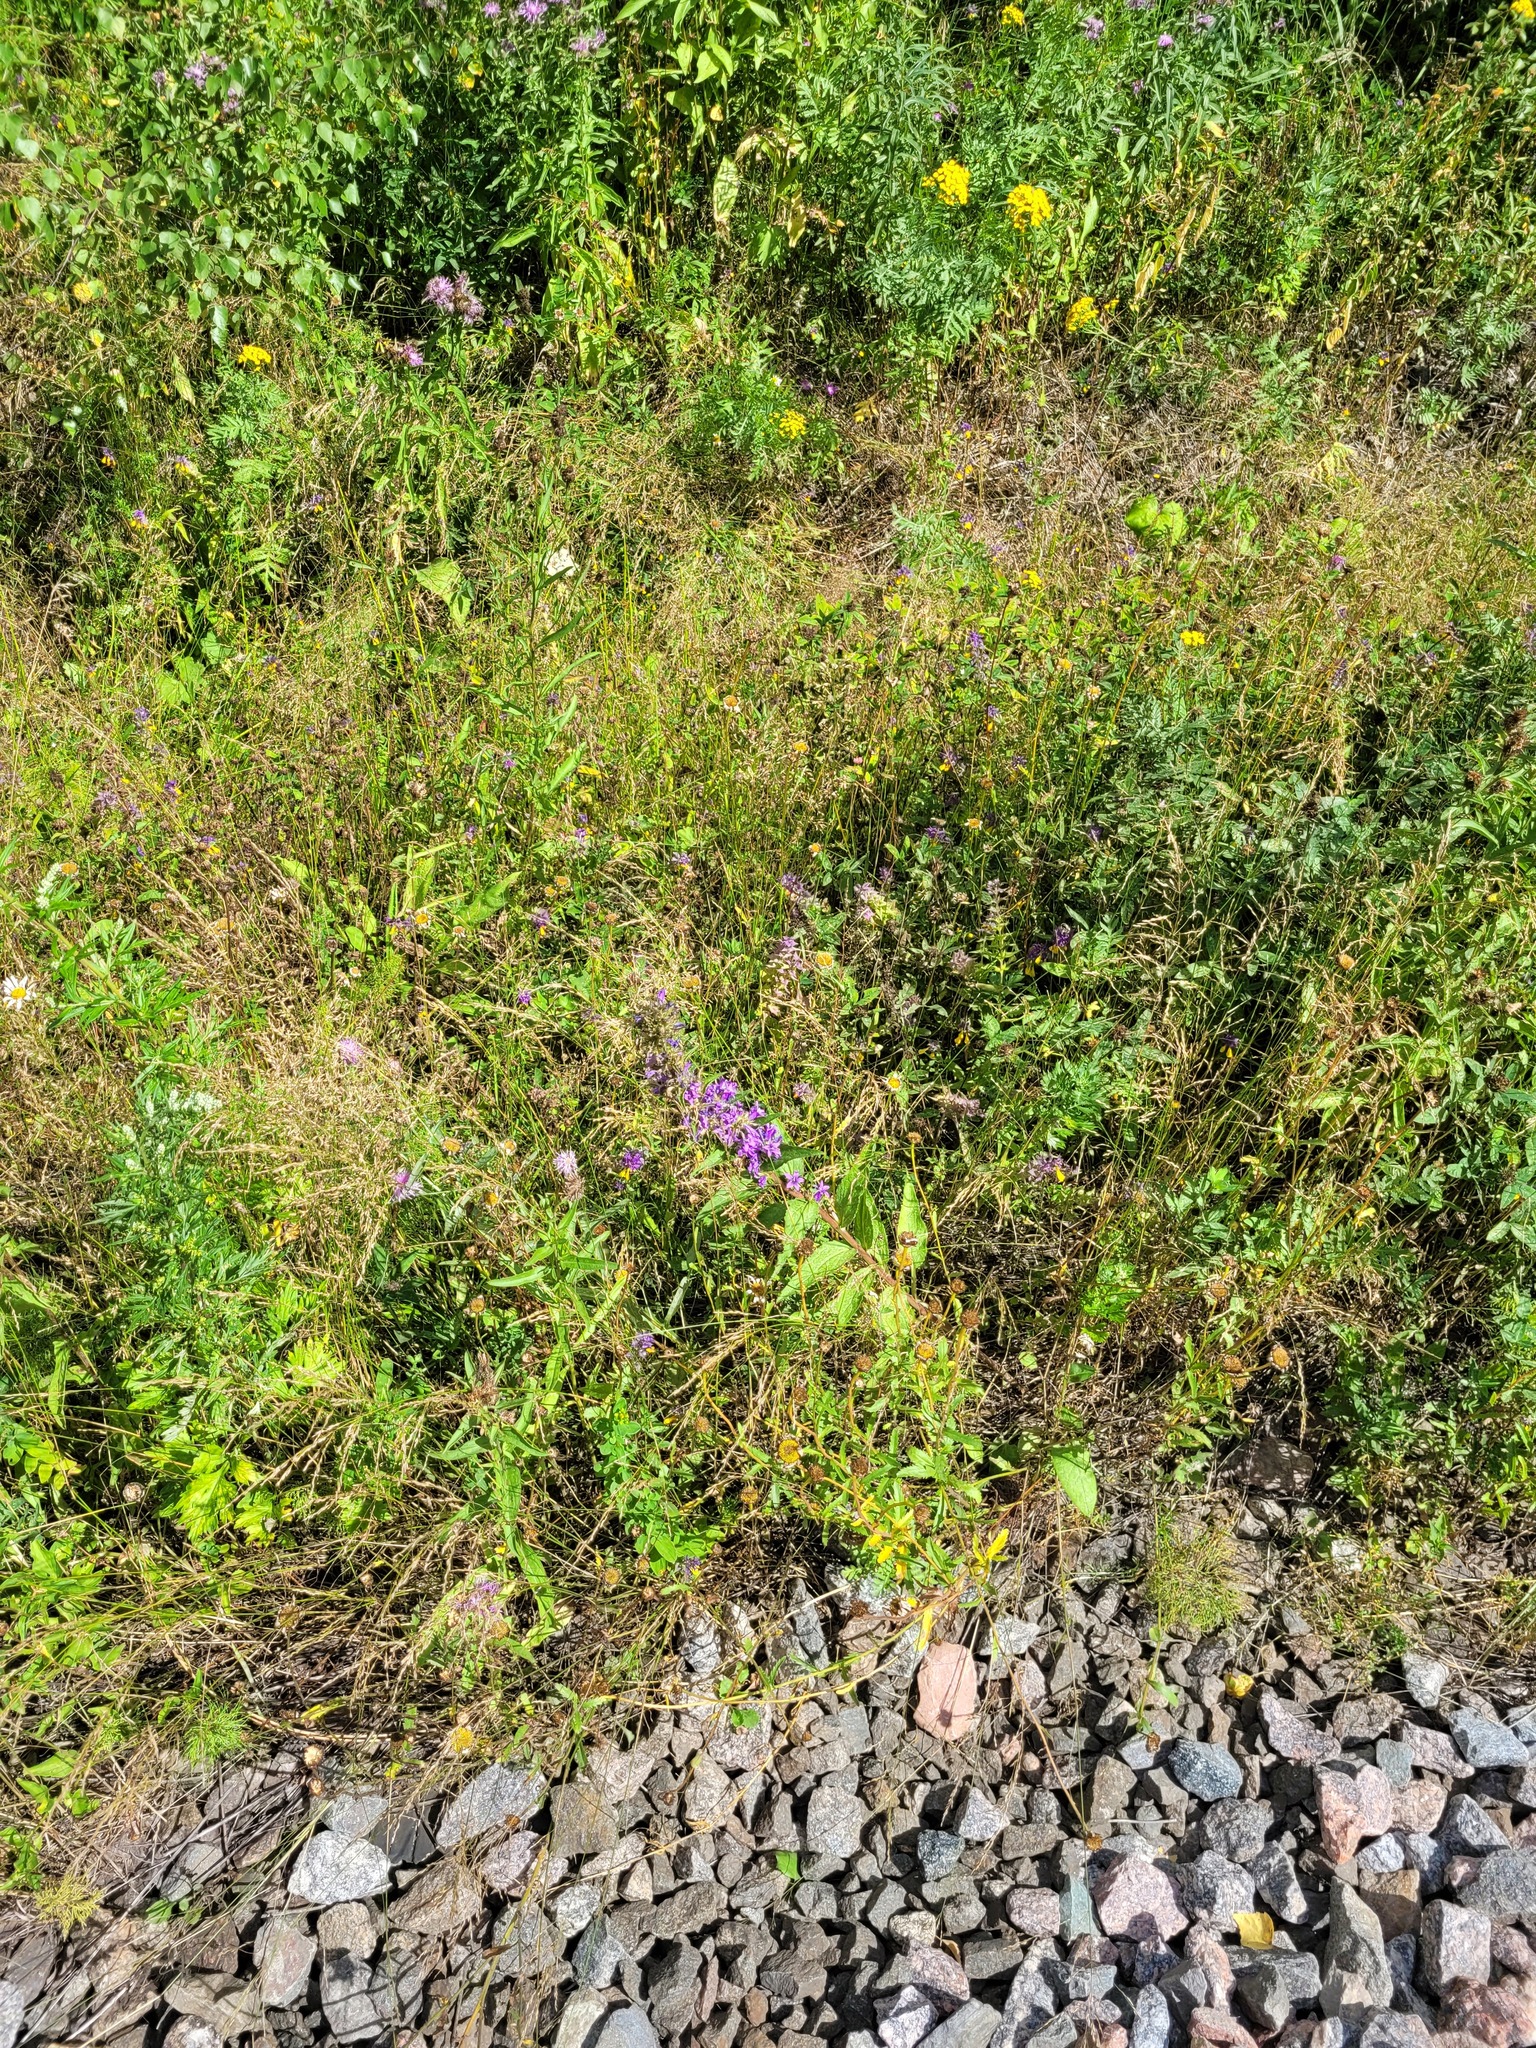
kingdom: Plantae
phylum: Tracheophyta
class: Magnoliopsida
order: Asterales
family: Campanulaceae
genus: Campanula
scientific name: Campanula glomerata
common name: Clustered bellflower
